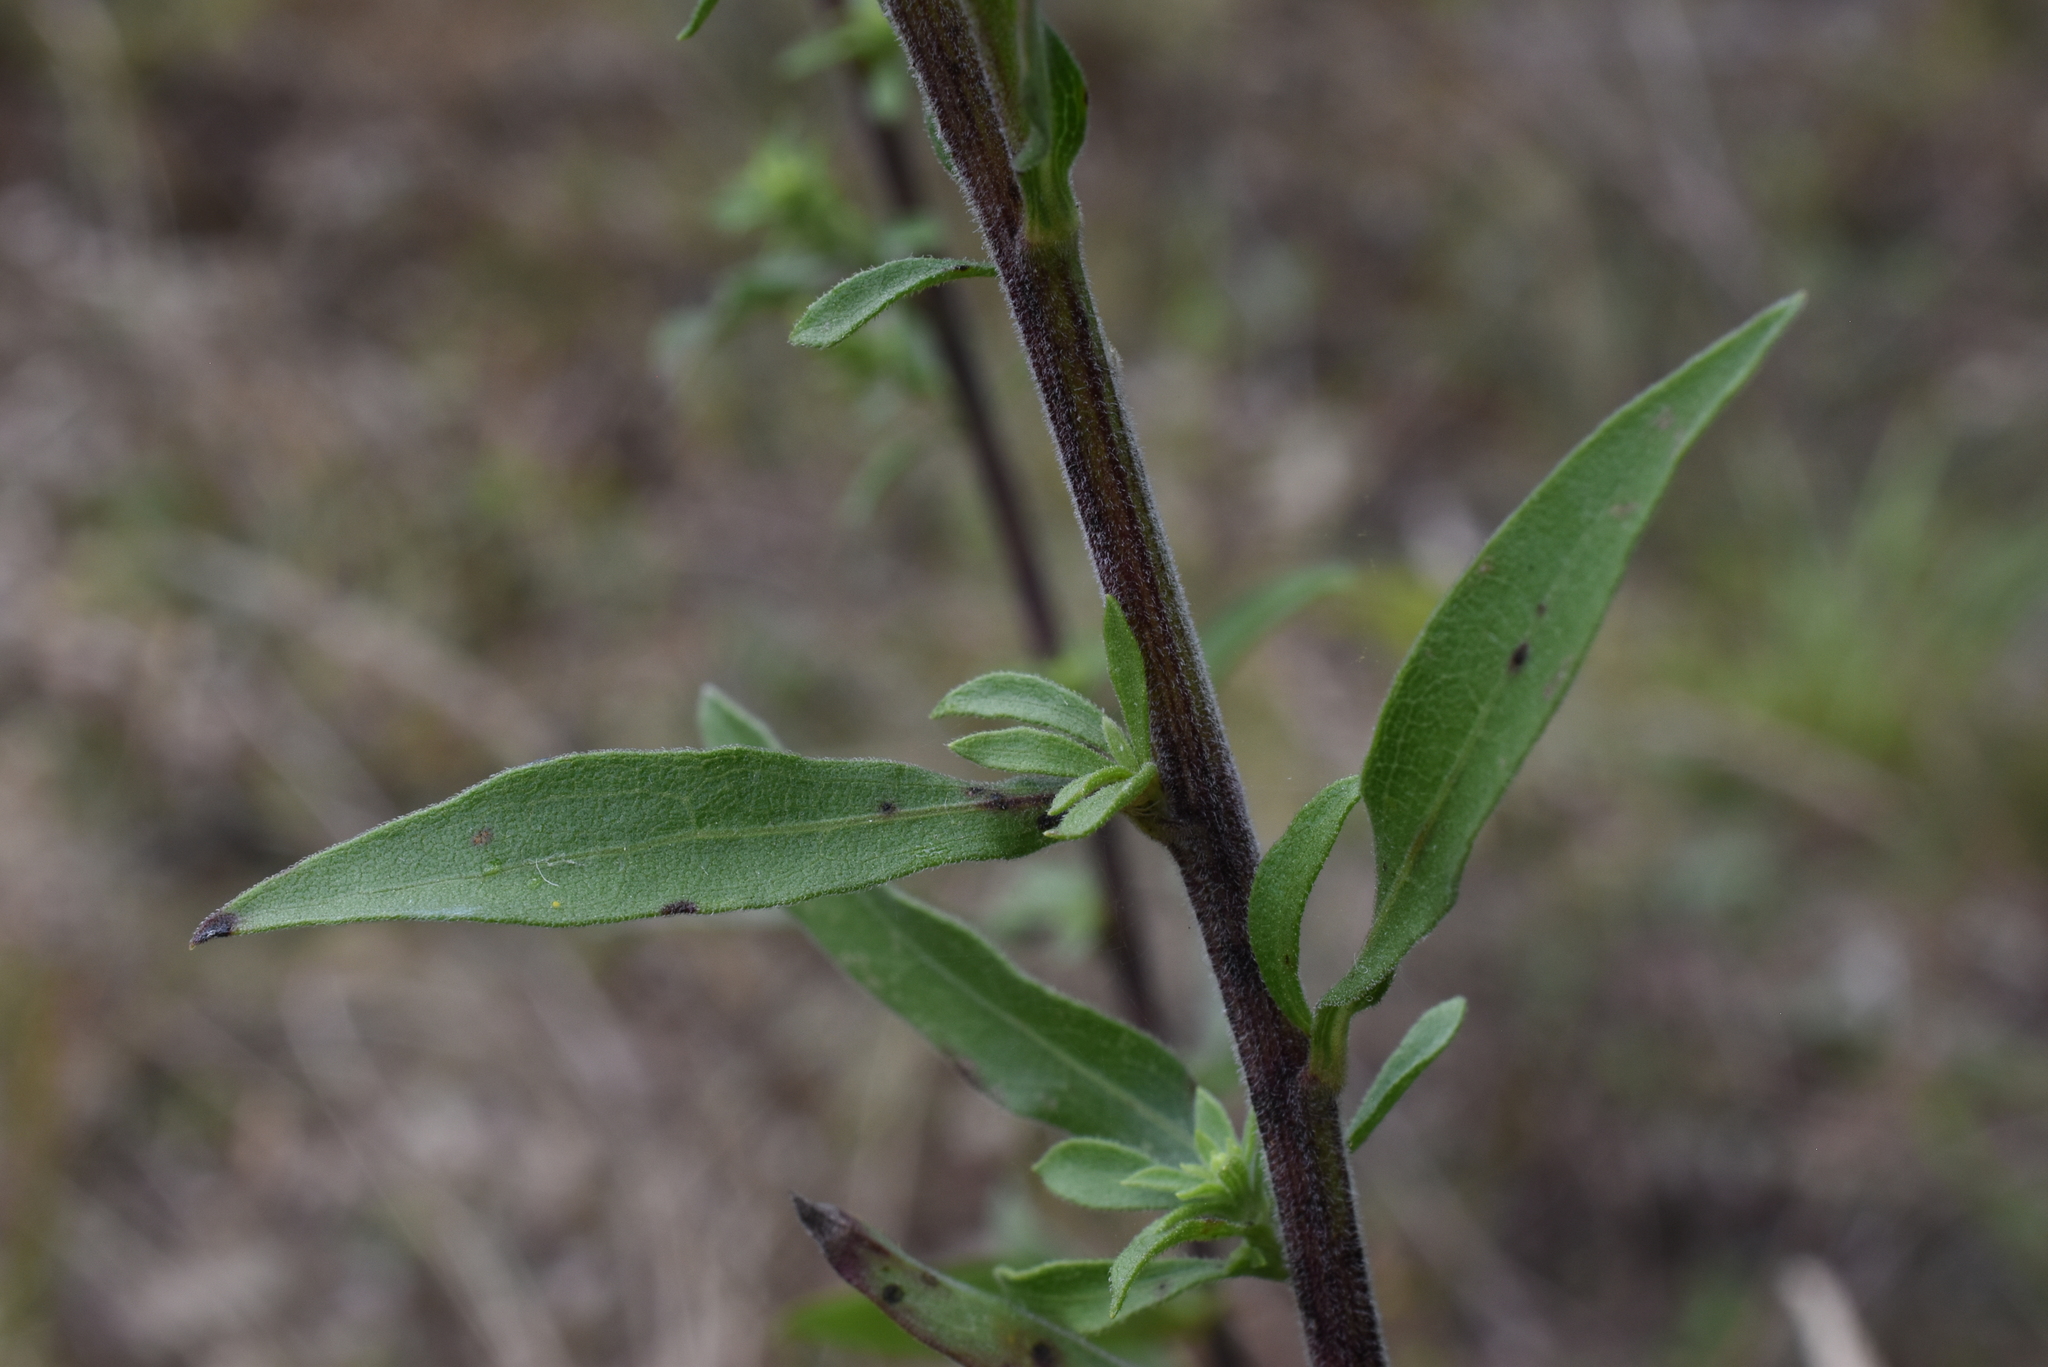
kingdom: Plantae
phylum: Tracheophyta
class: Magnoliopsida
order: Asterales
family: Asteraceae
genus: Solidago
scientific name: Solidago nemoralis
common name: Grey goldenrod
